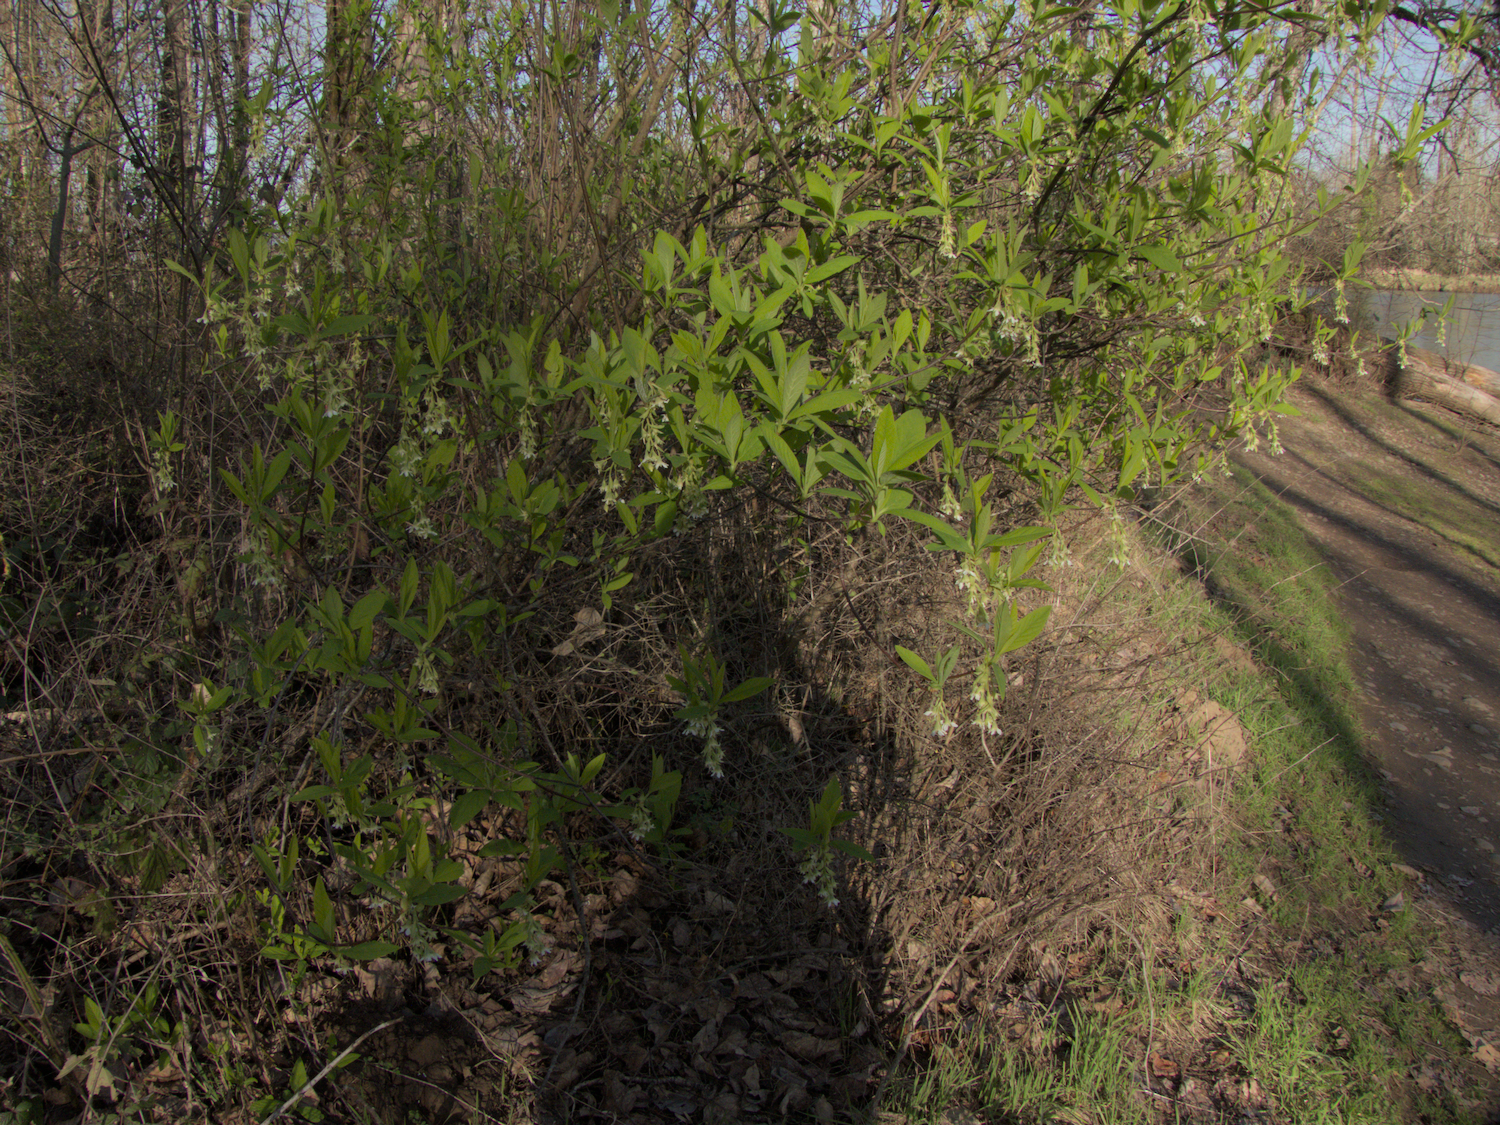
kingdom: Plantae
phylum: Tracheophyta
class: Magnoliopsida
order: Rosales
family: Rosaceae
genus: Oemleria
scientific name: Oemleria cerasiformis
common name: Osoberry
